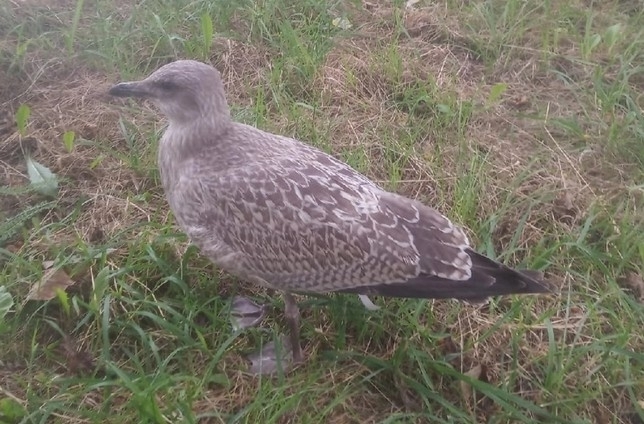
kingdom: Animalia
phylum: Chordata
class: Aves
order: Charadriiformes
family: Laridae
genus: Larus
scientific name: Larus fuscus
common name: Lesser black-backed gull
